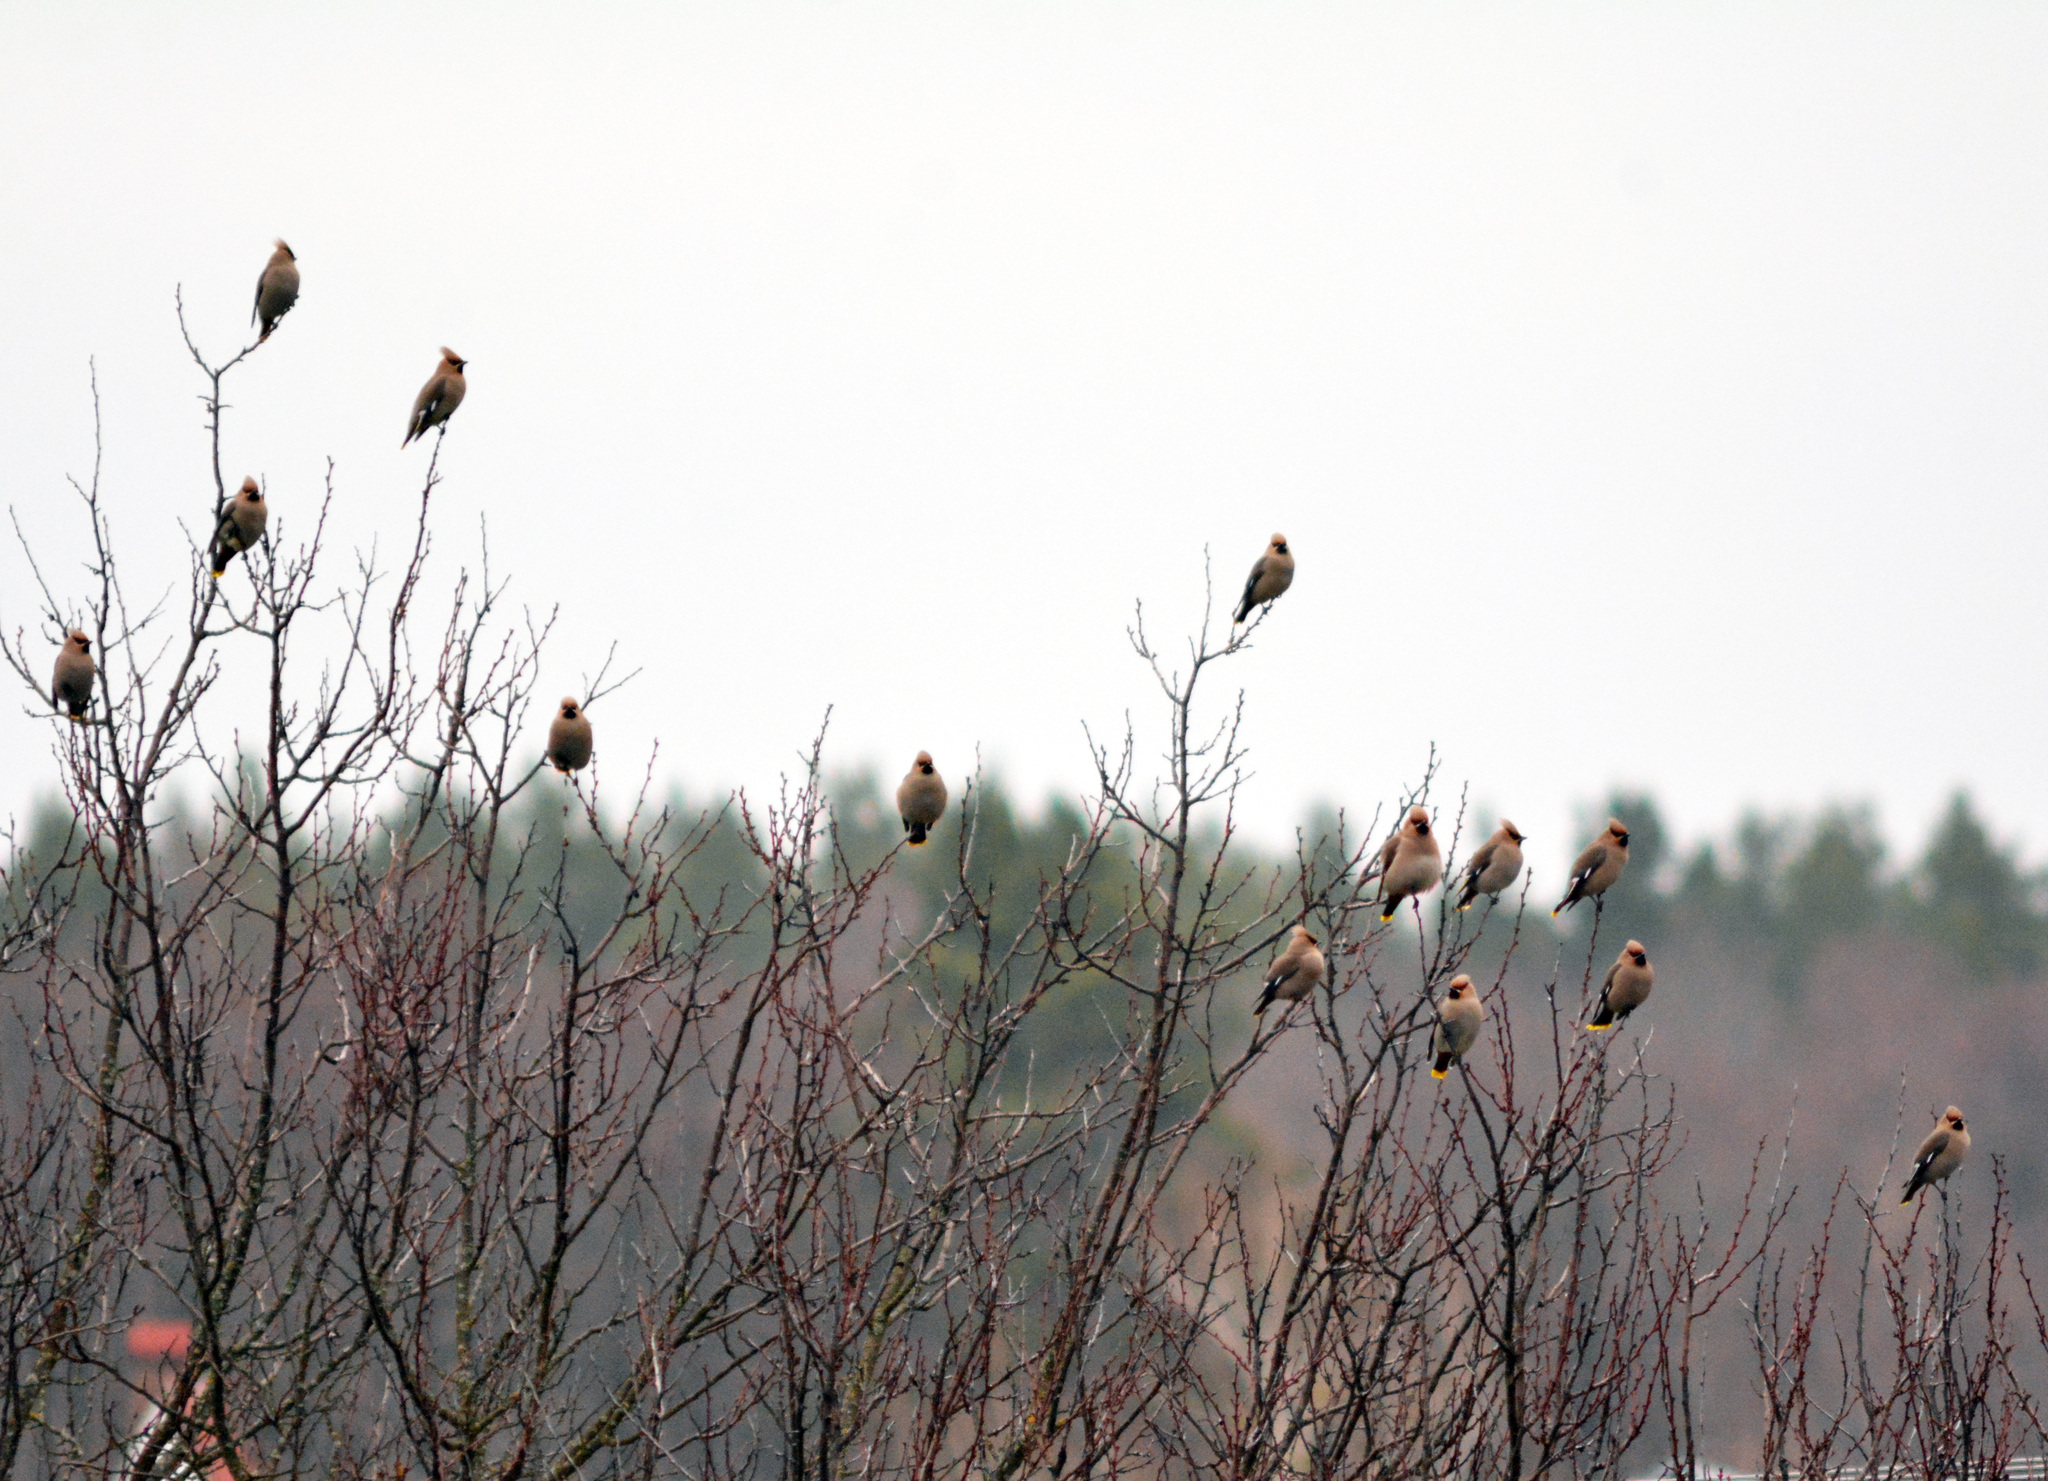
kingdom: Animalia
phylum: Chordata
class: Aves
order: Passeriformes
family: Bombycillidae
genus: Bombycilla
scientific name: Bombycilla garrulus
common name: Bohemian waxwing
